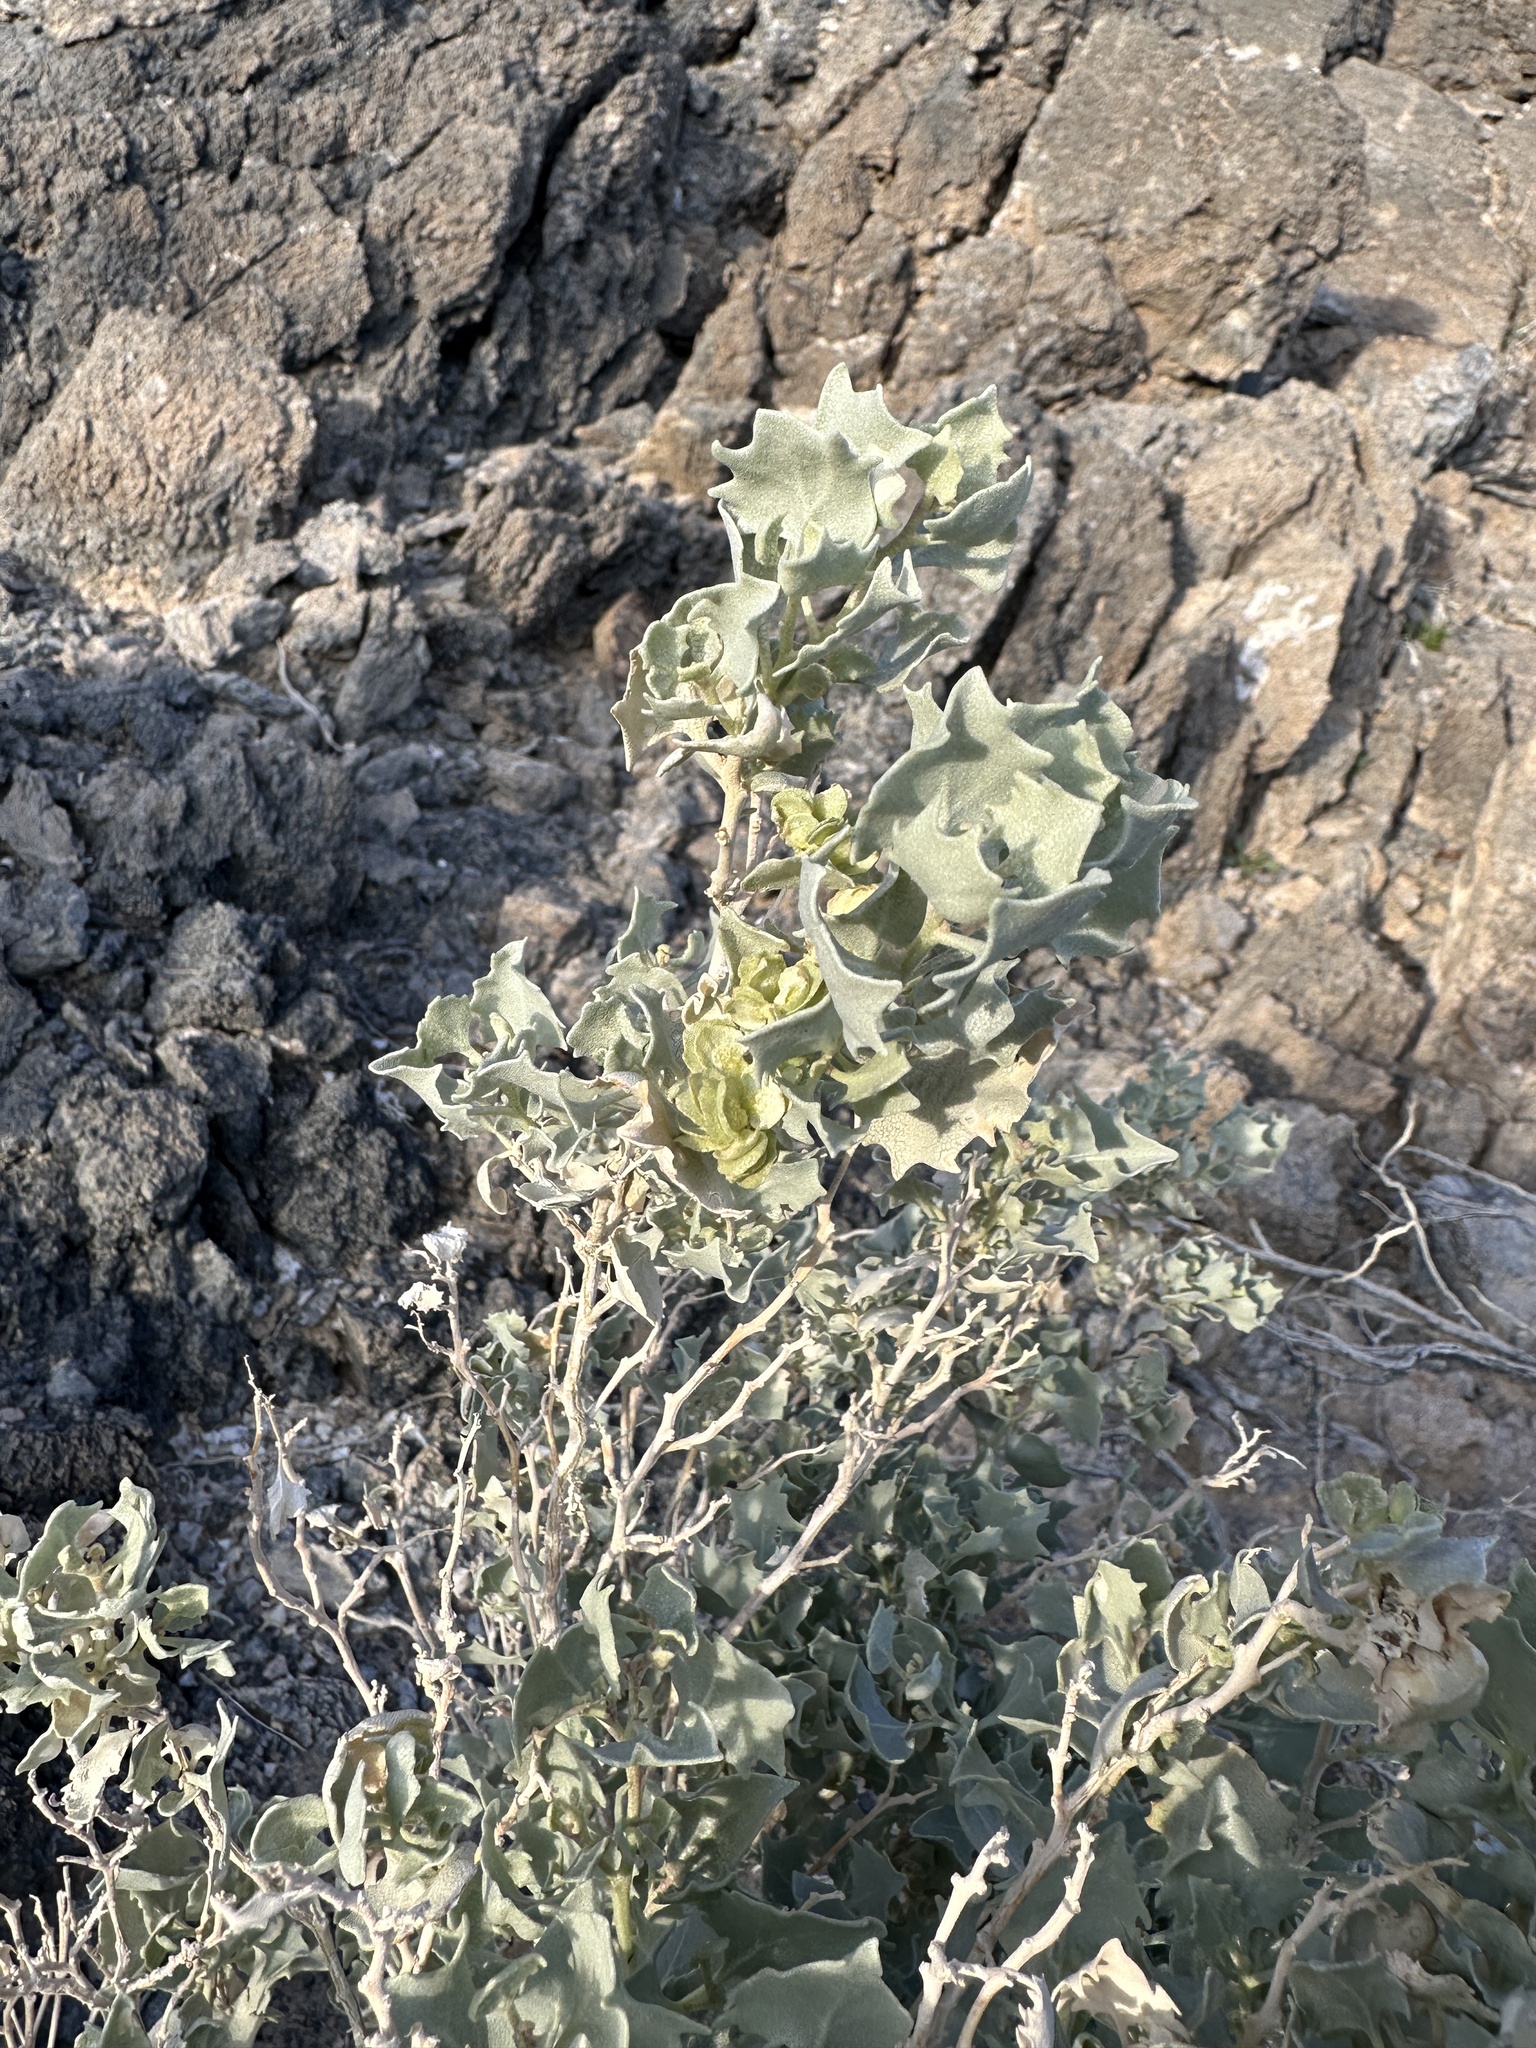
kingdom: Plantae
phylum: Tracheophyta
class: Magnoliopsida
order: Caryophyllales
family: Amaranthaceae
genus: Atriplex
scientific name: Atriplex hymenelytra
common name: Desert-holly
